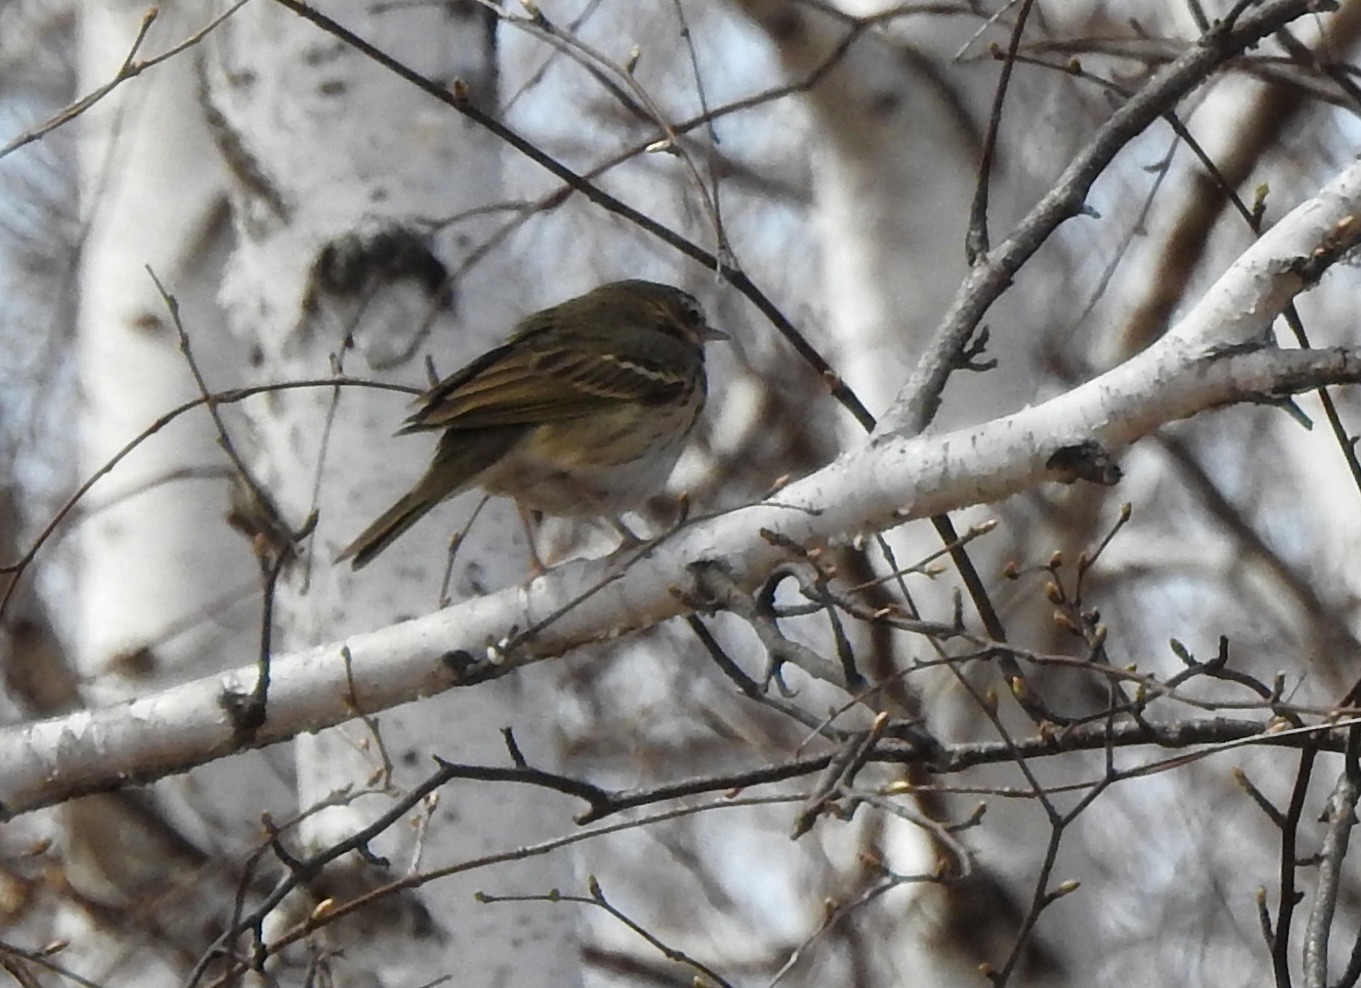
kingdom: Animalia
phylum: Chordata
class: Aves
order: Passeriformes
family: Motacillidae
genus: Anthus
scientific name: Anthus hodgsoni
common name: Olive-backed pipit
